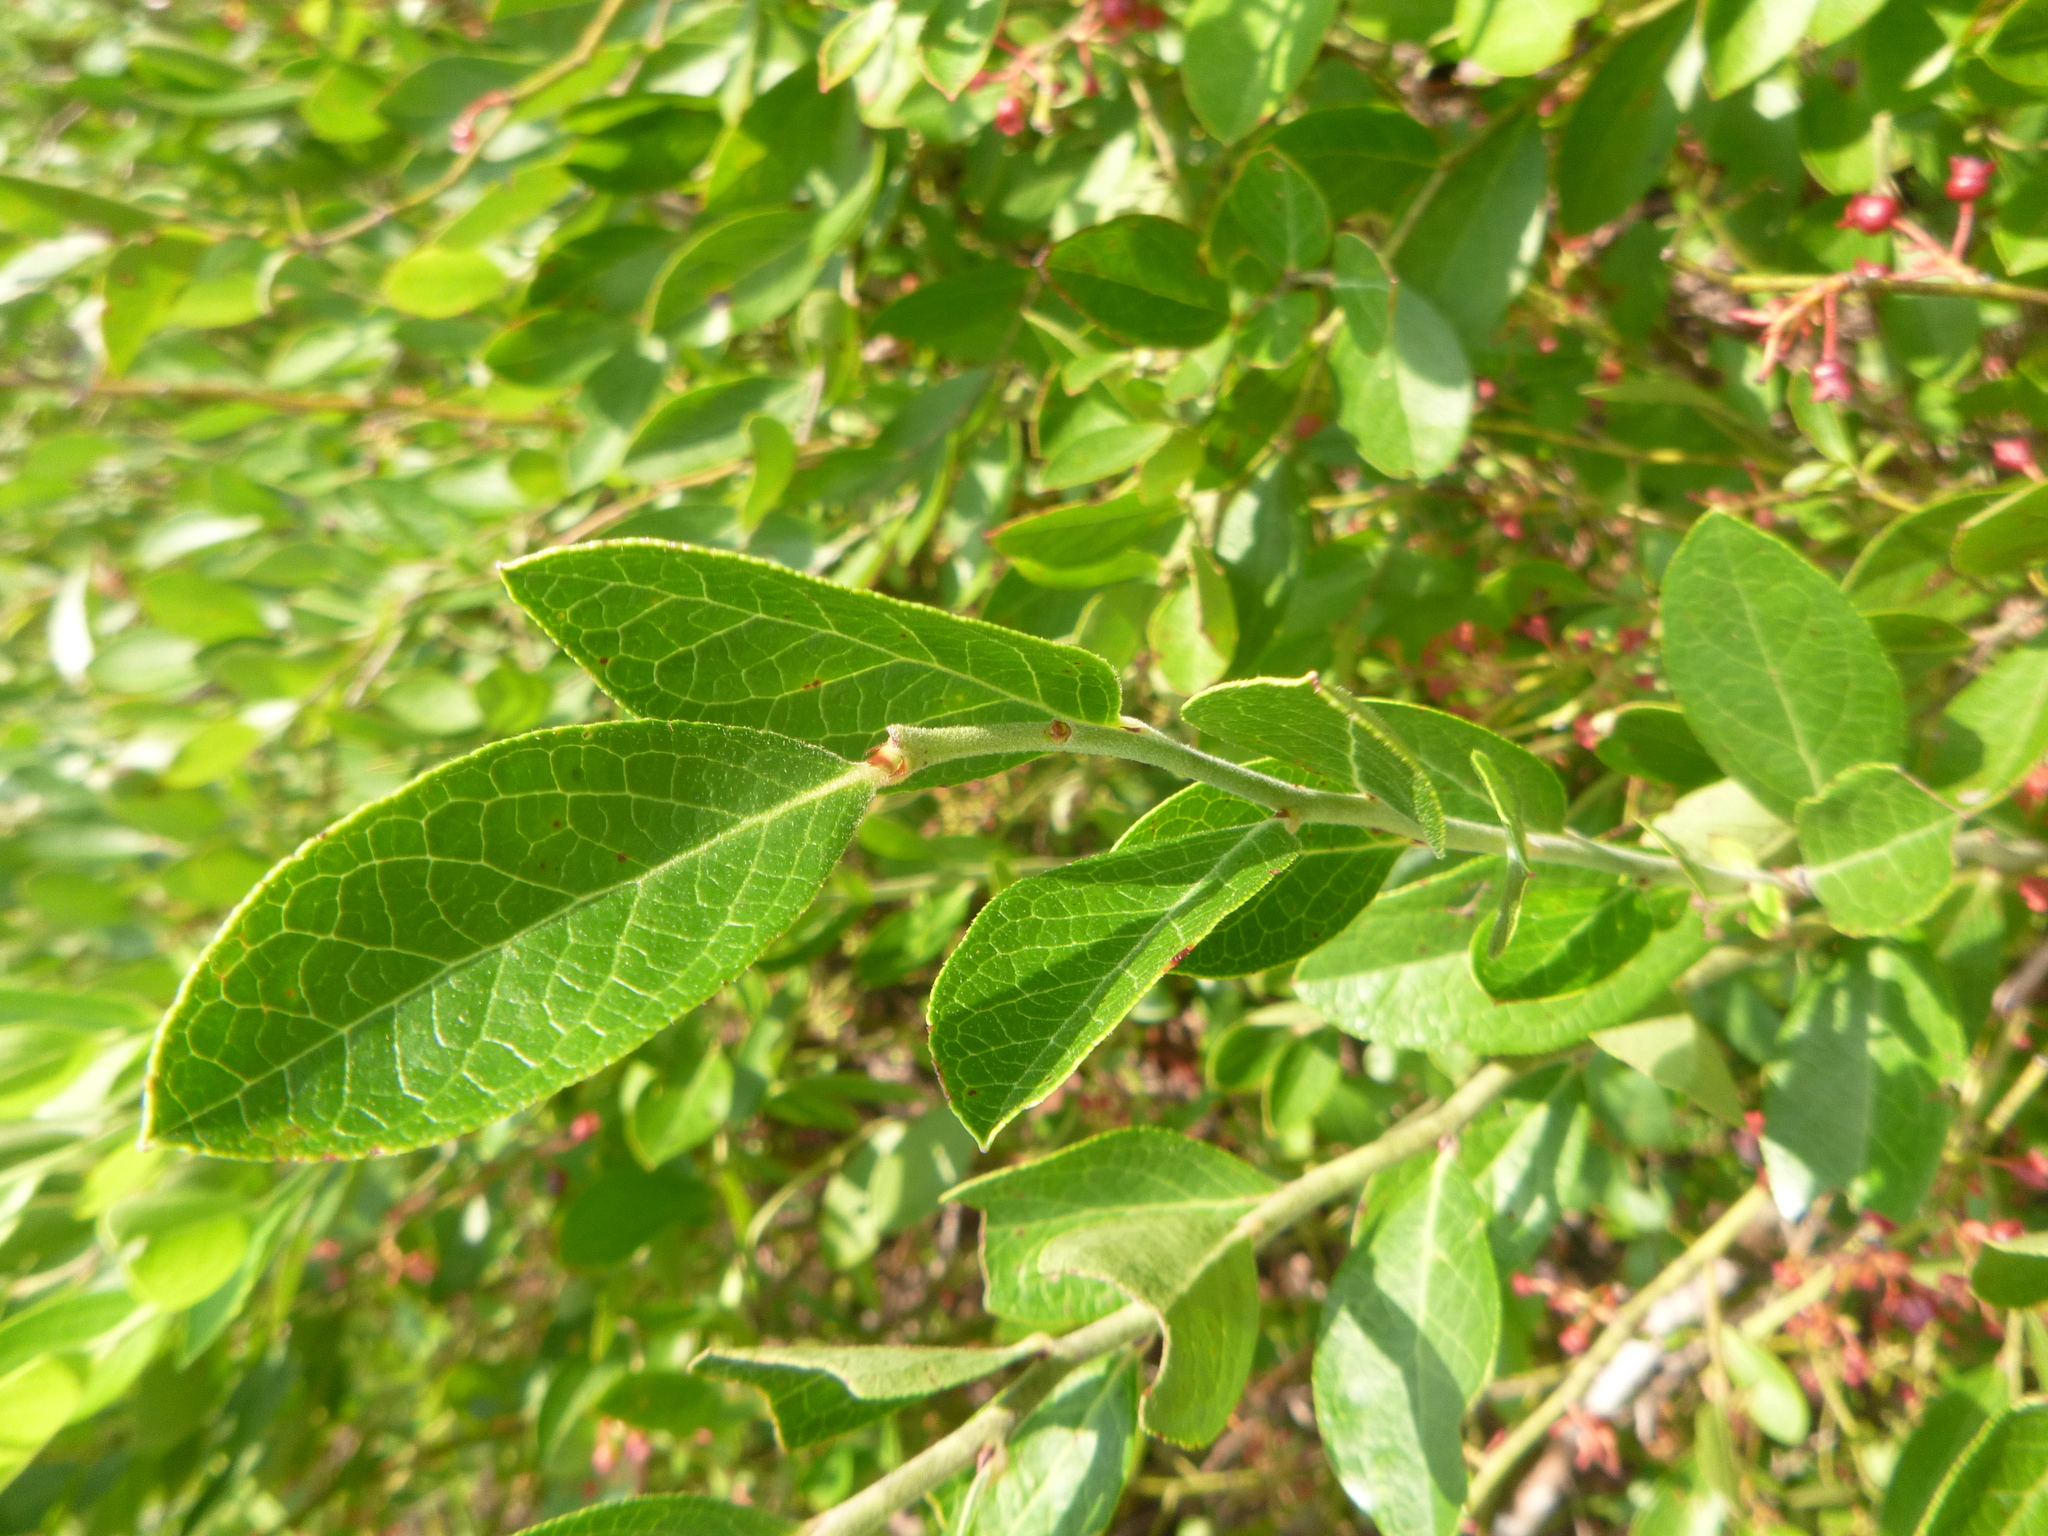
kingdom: Plantae
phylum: Tracheophyta
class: Magnoliopsida
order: Ericales
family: Ericaceae
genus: Vaccinium
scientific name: Vaccinium
